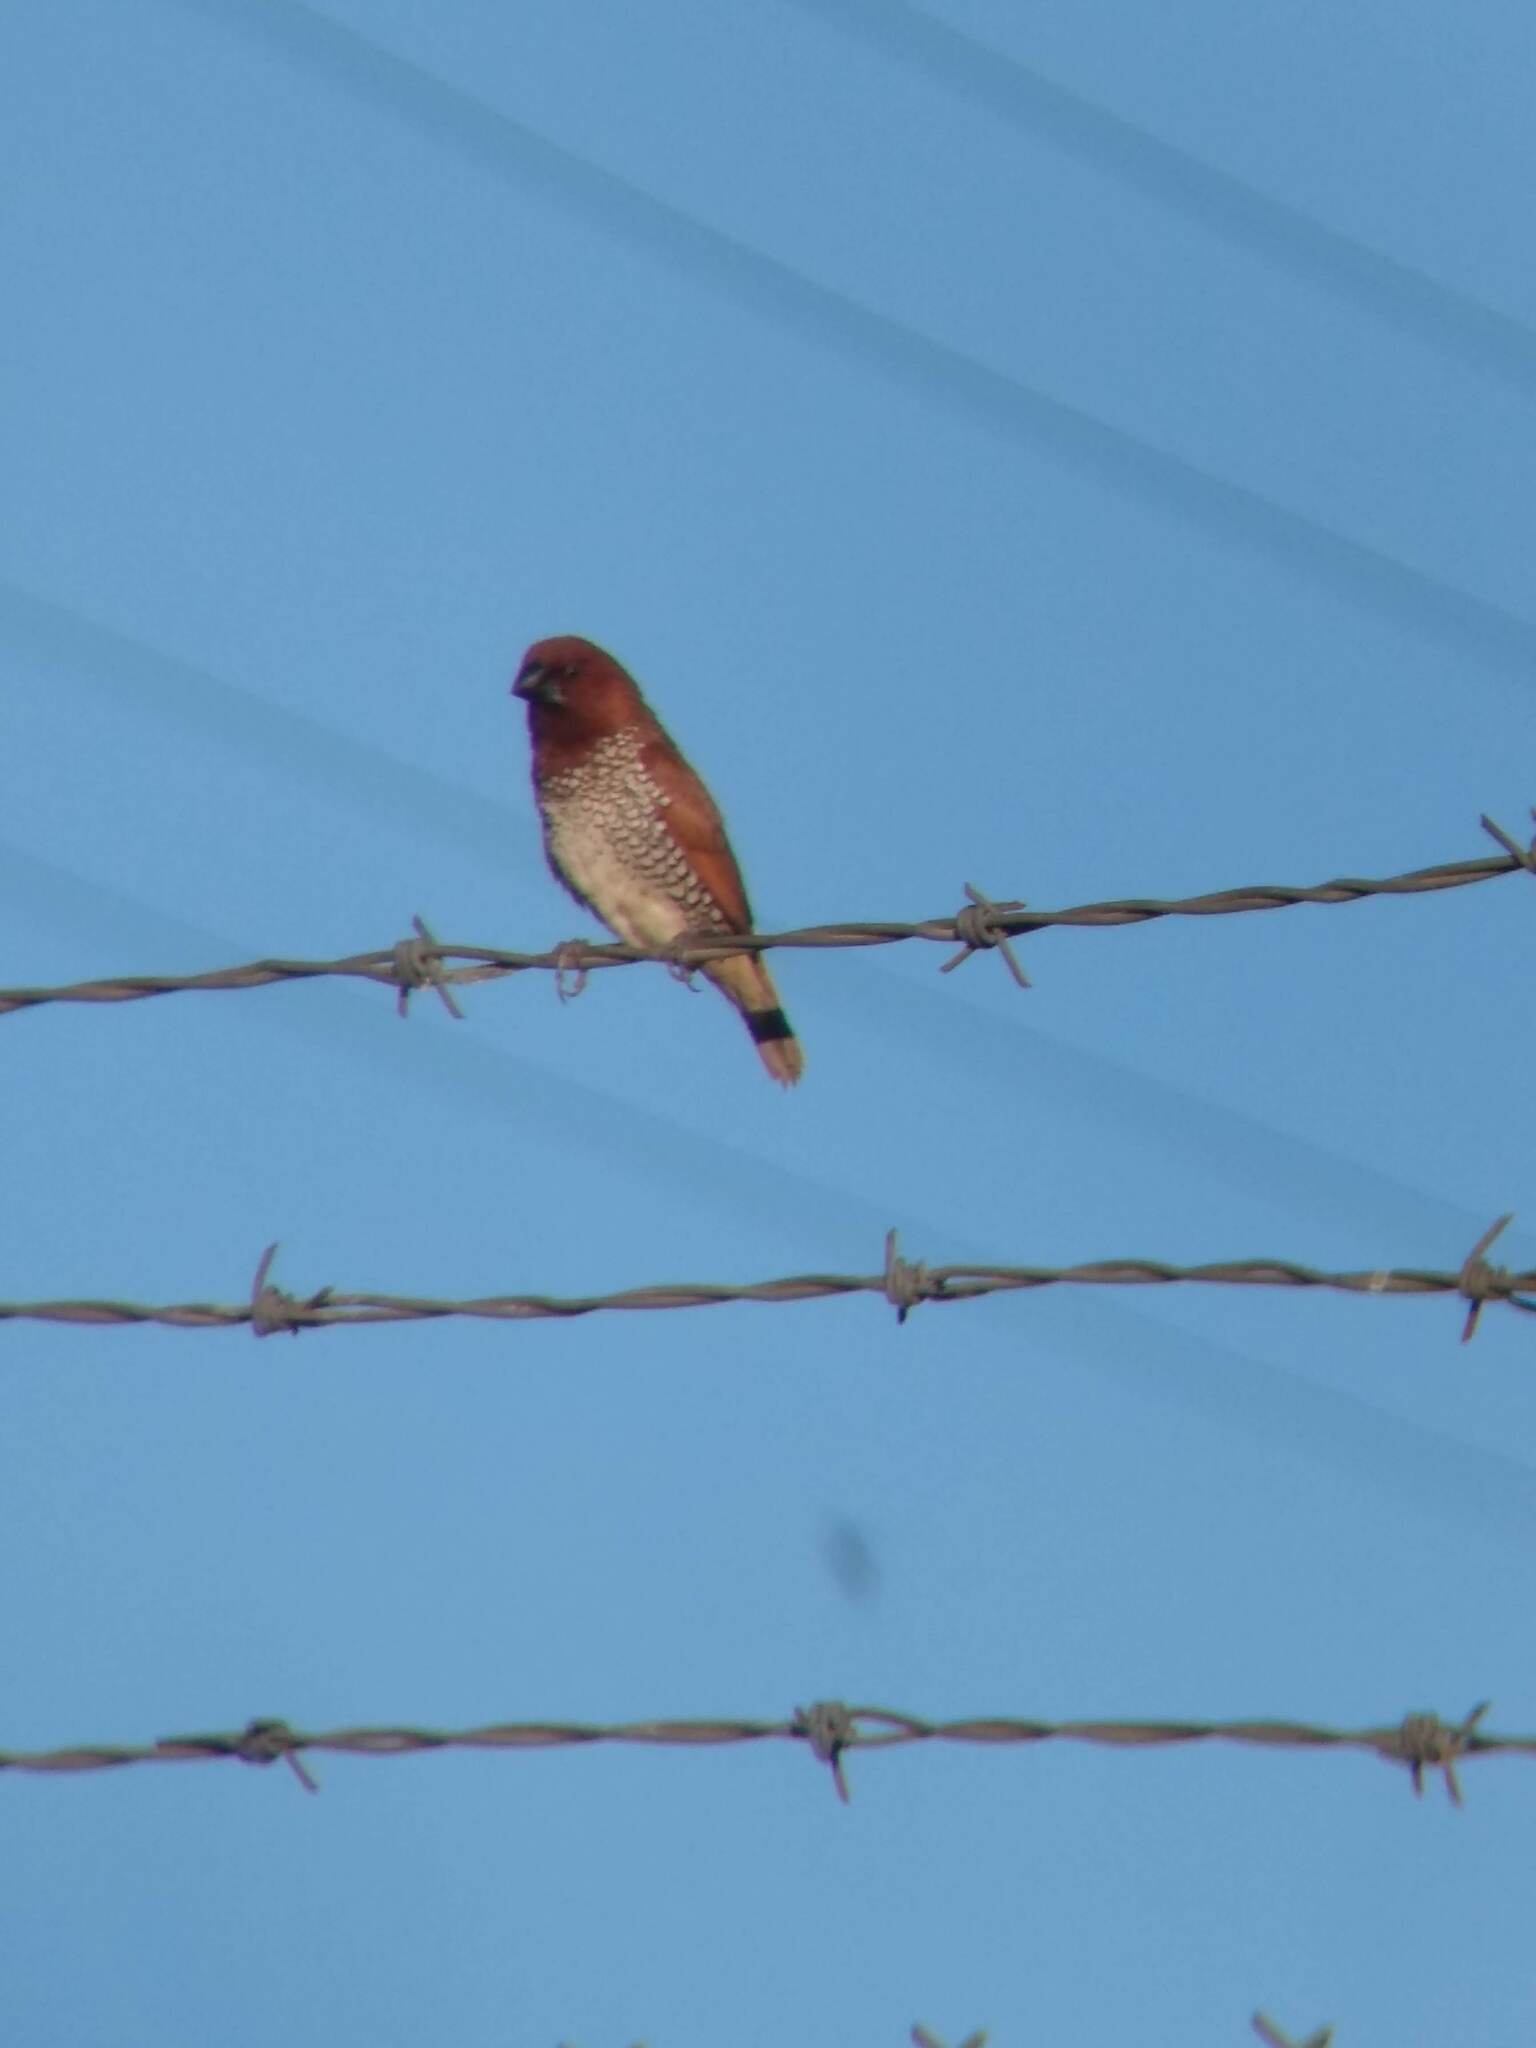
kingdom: Animalia
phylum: Chordata
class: Aves
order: Passeriformes
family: Estrildidae
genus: Lonchura
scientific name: Lonchura punctulata
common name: Scaly-breasted munia
